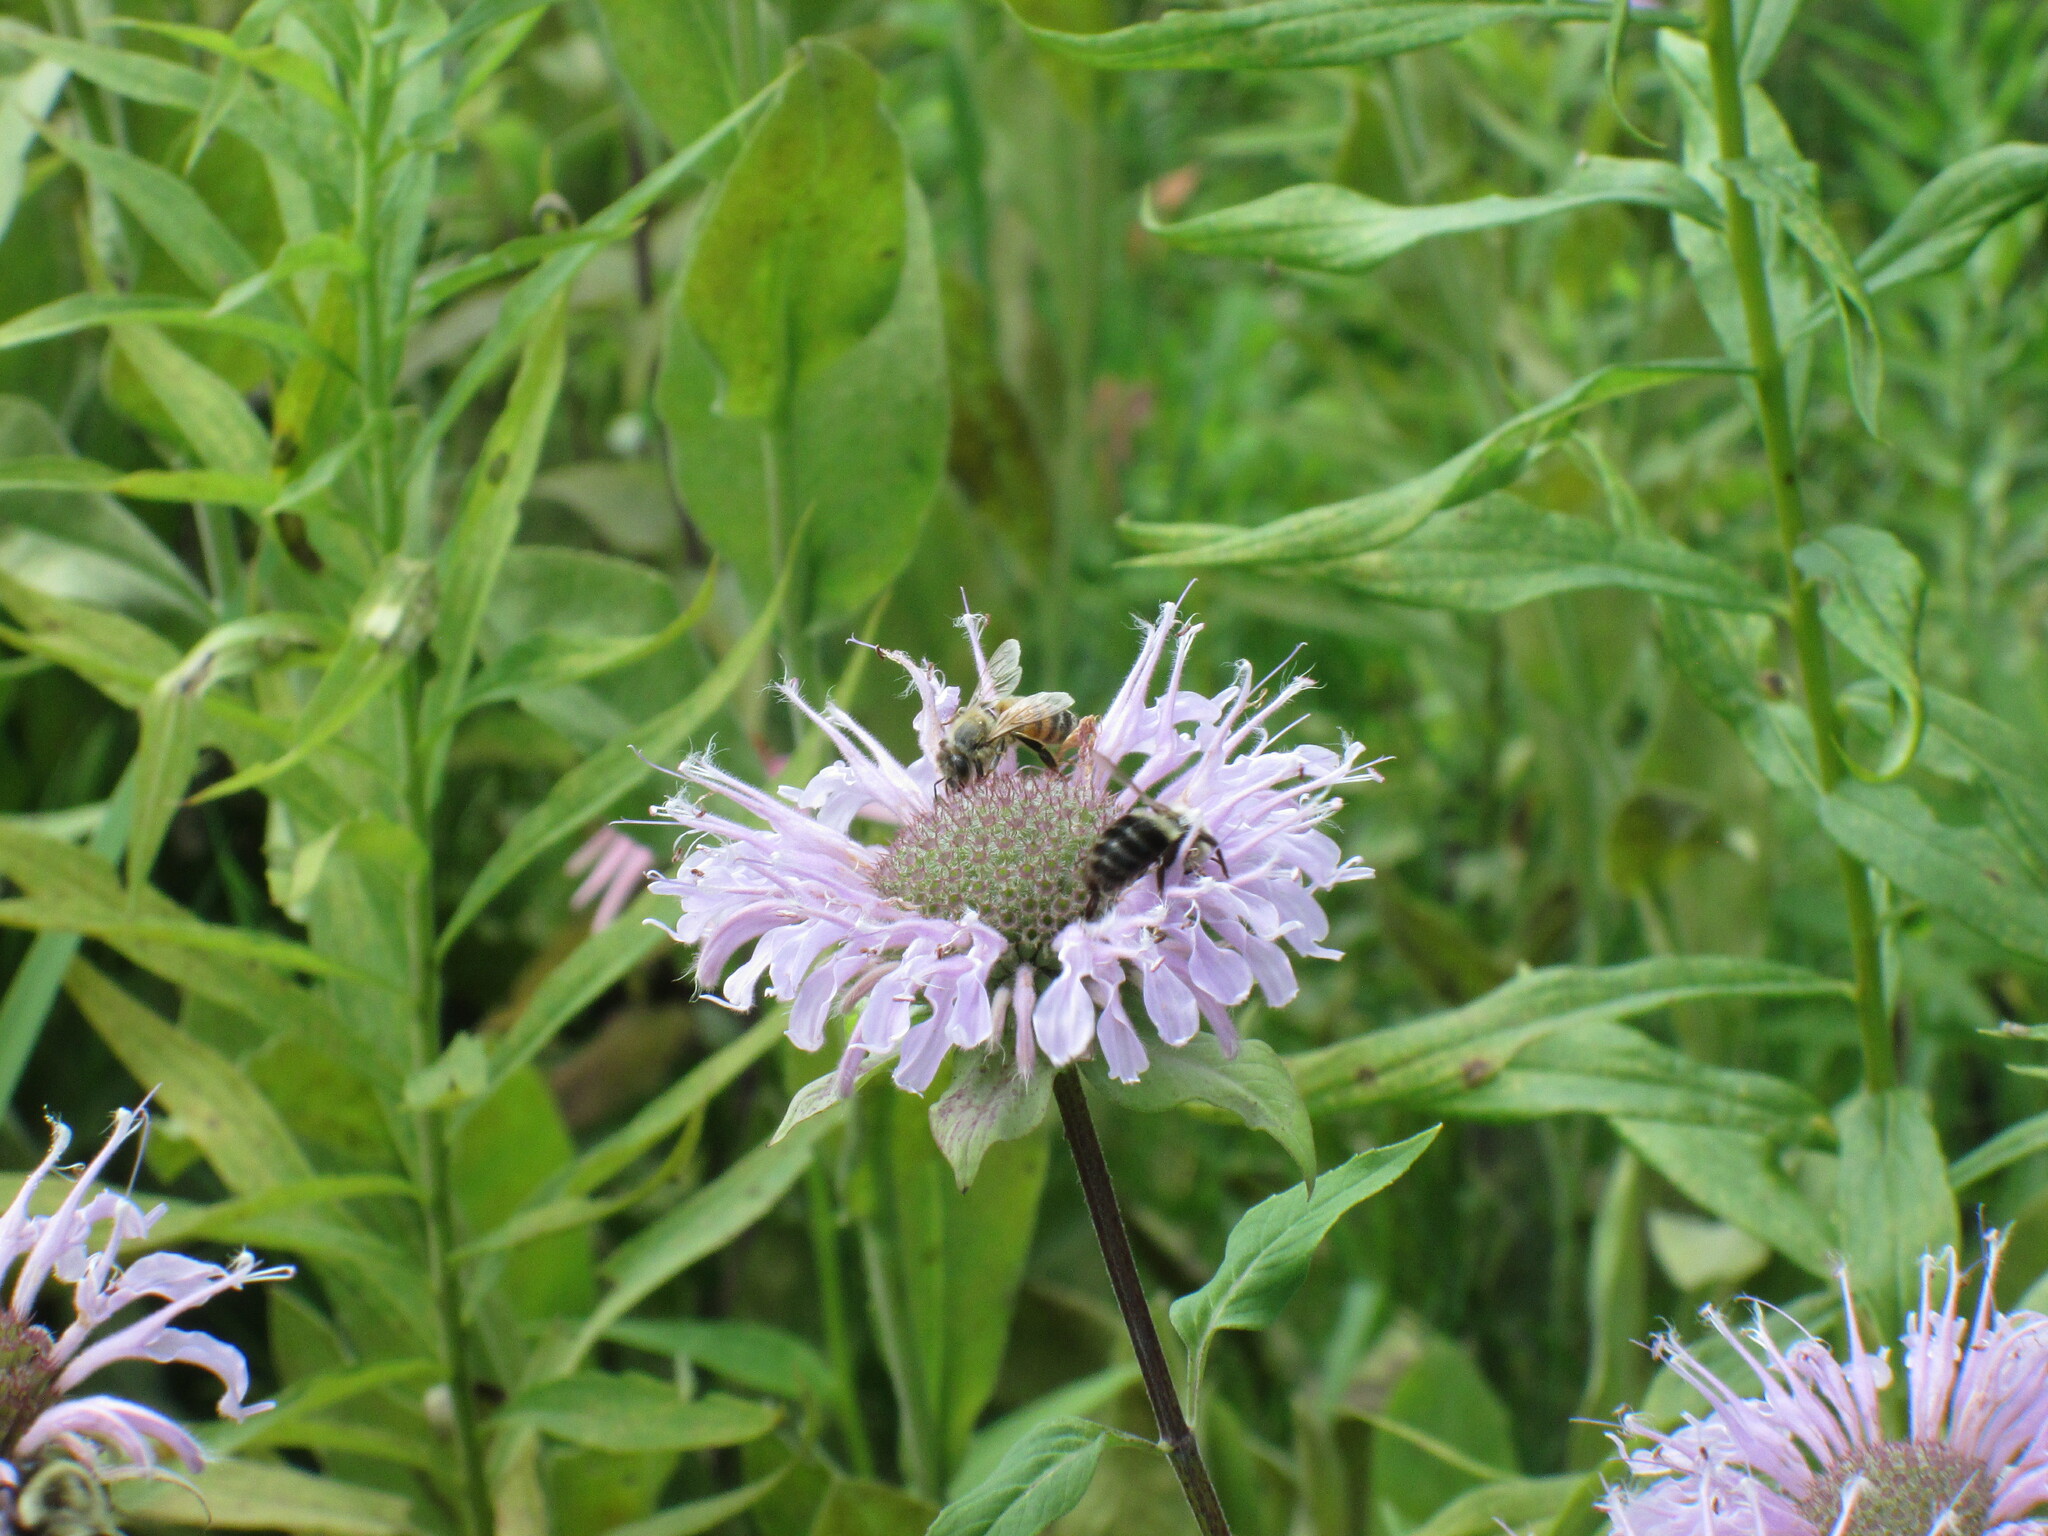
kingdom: Animalia
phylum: Arthropoda
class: Insecta
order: Hymenoptera
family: Apidae
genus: Bombus
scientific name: Bombus impatiens
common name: Common eastern bumble bee
